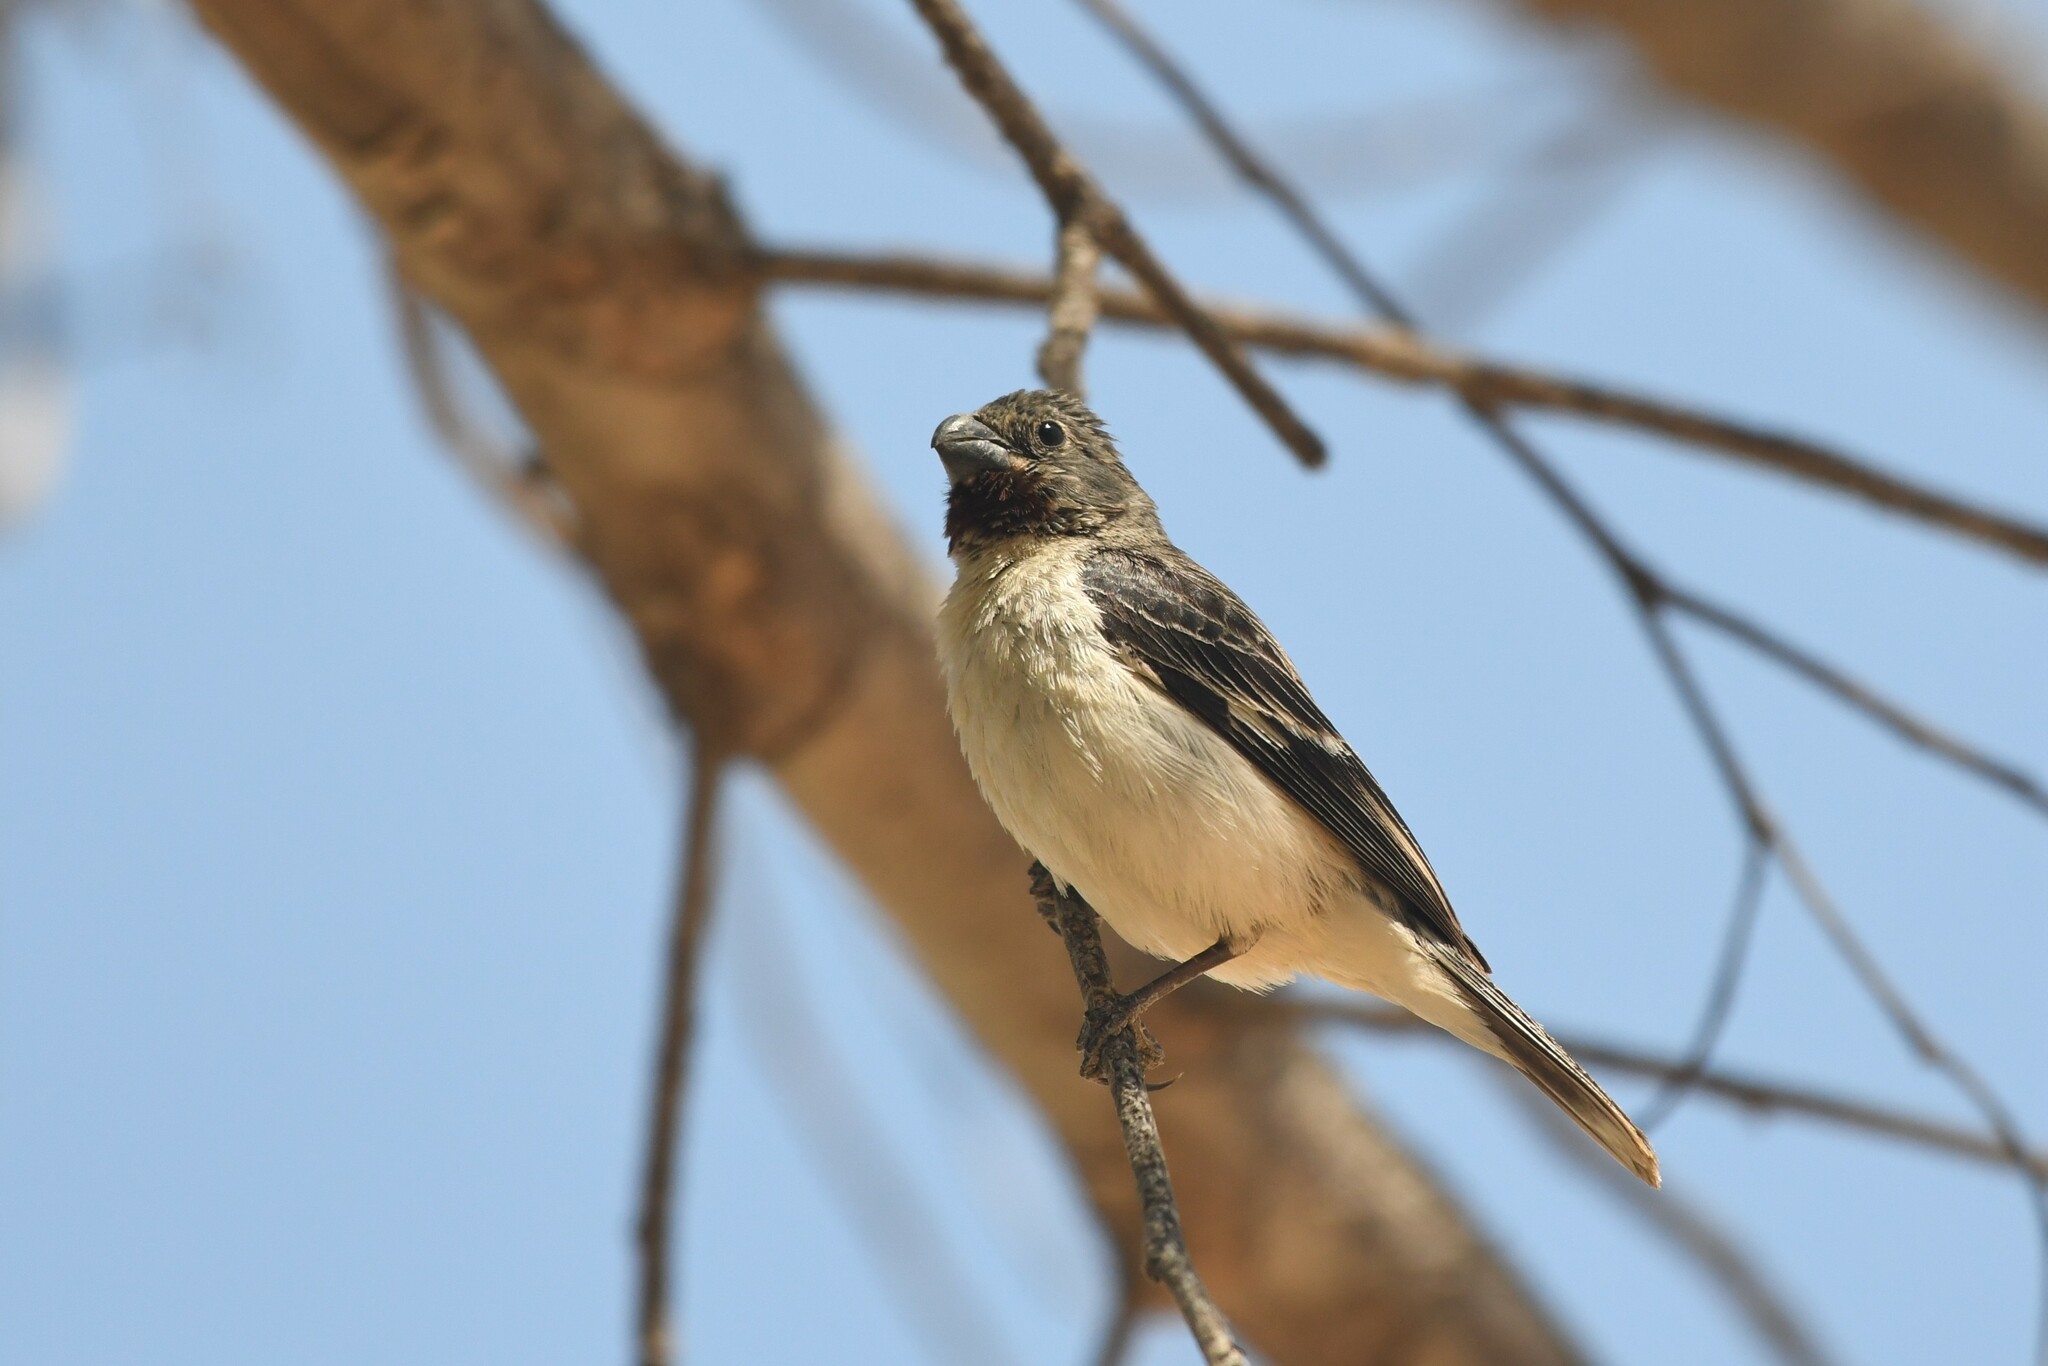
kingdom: Animalia
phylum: Chordata
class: Aves
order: Passeriformes
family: Thraupidae
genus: Sporophila
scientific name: Sporophila telasco
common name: Chestnut-throated seedeater
